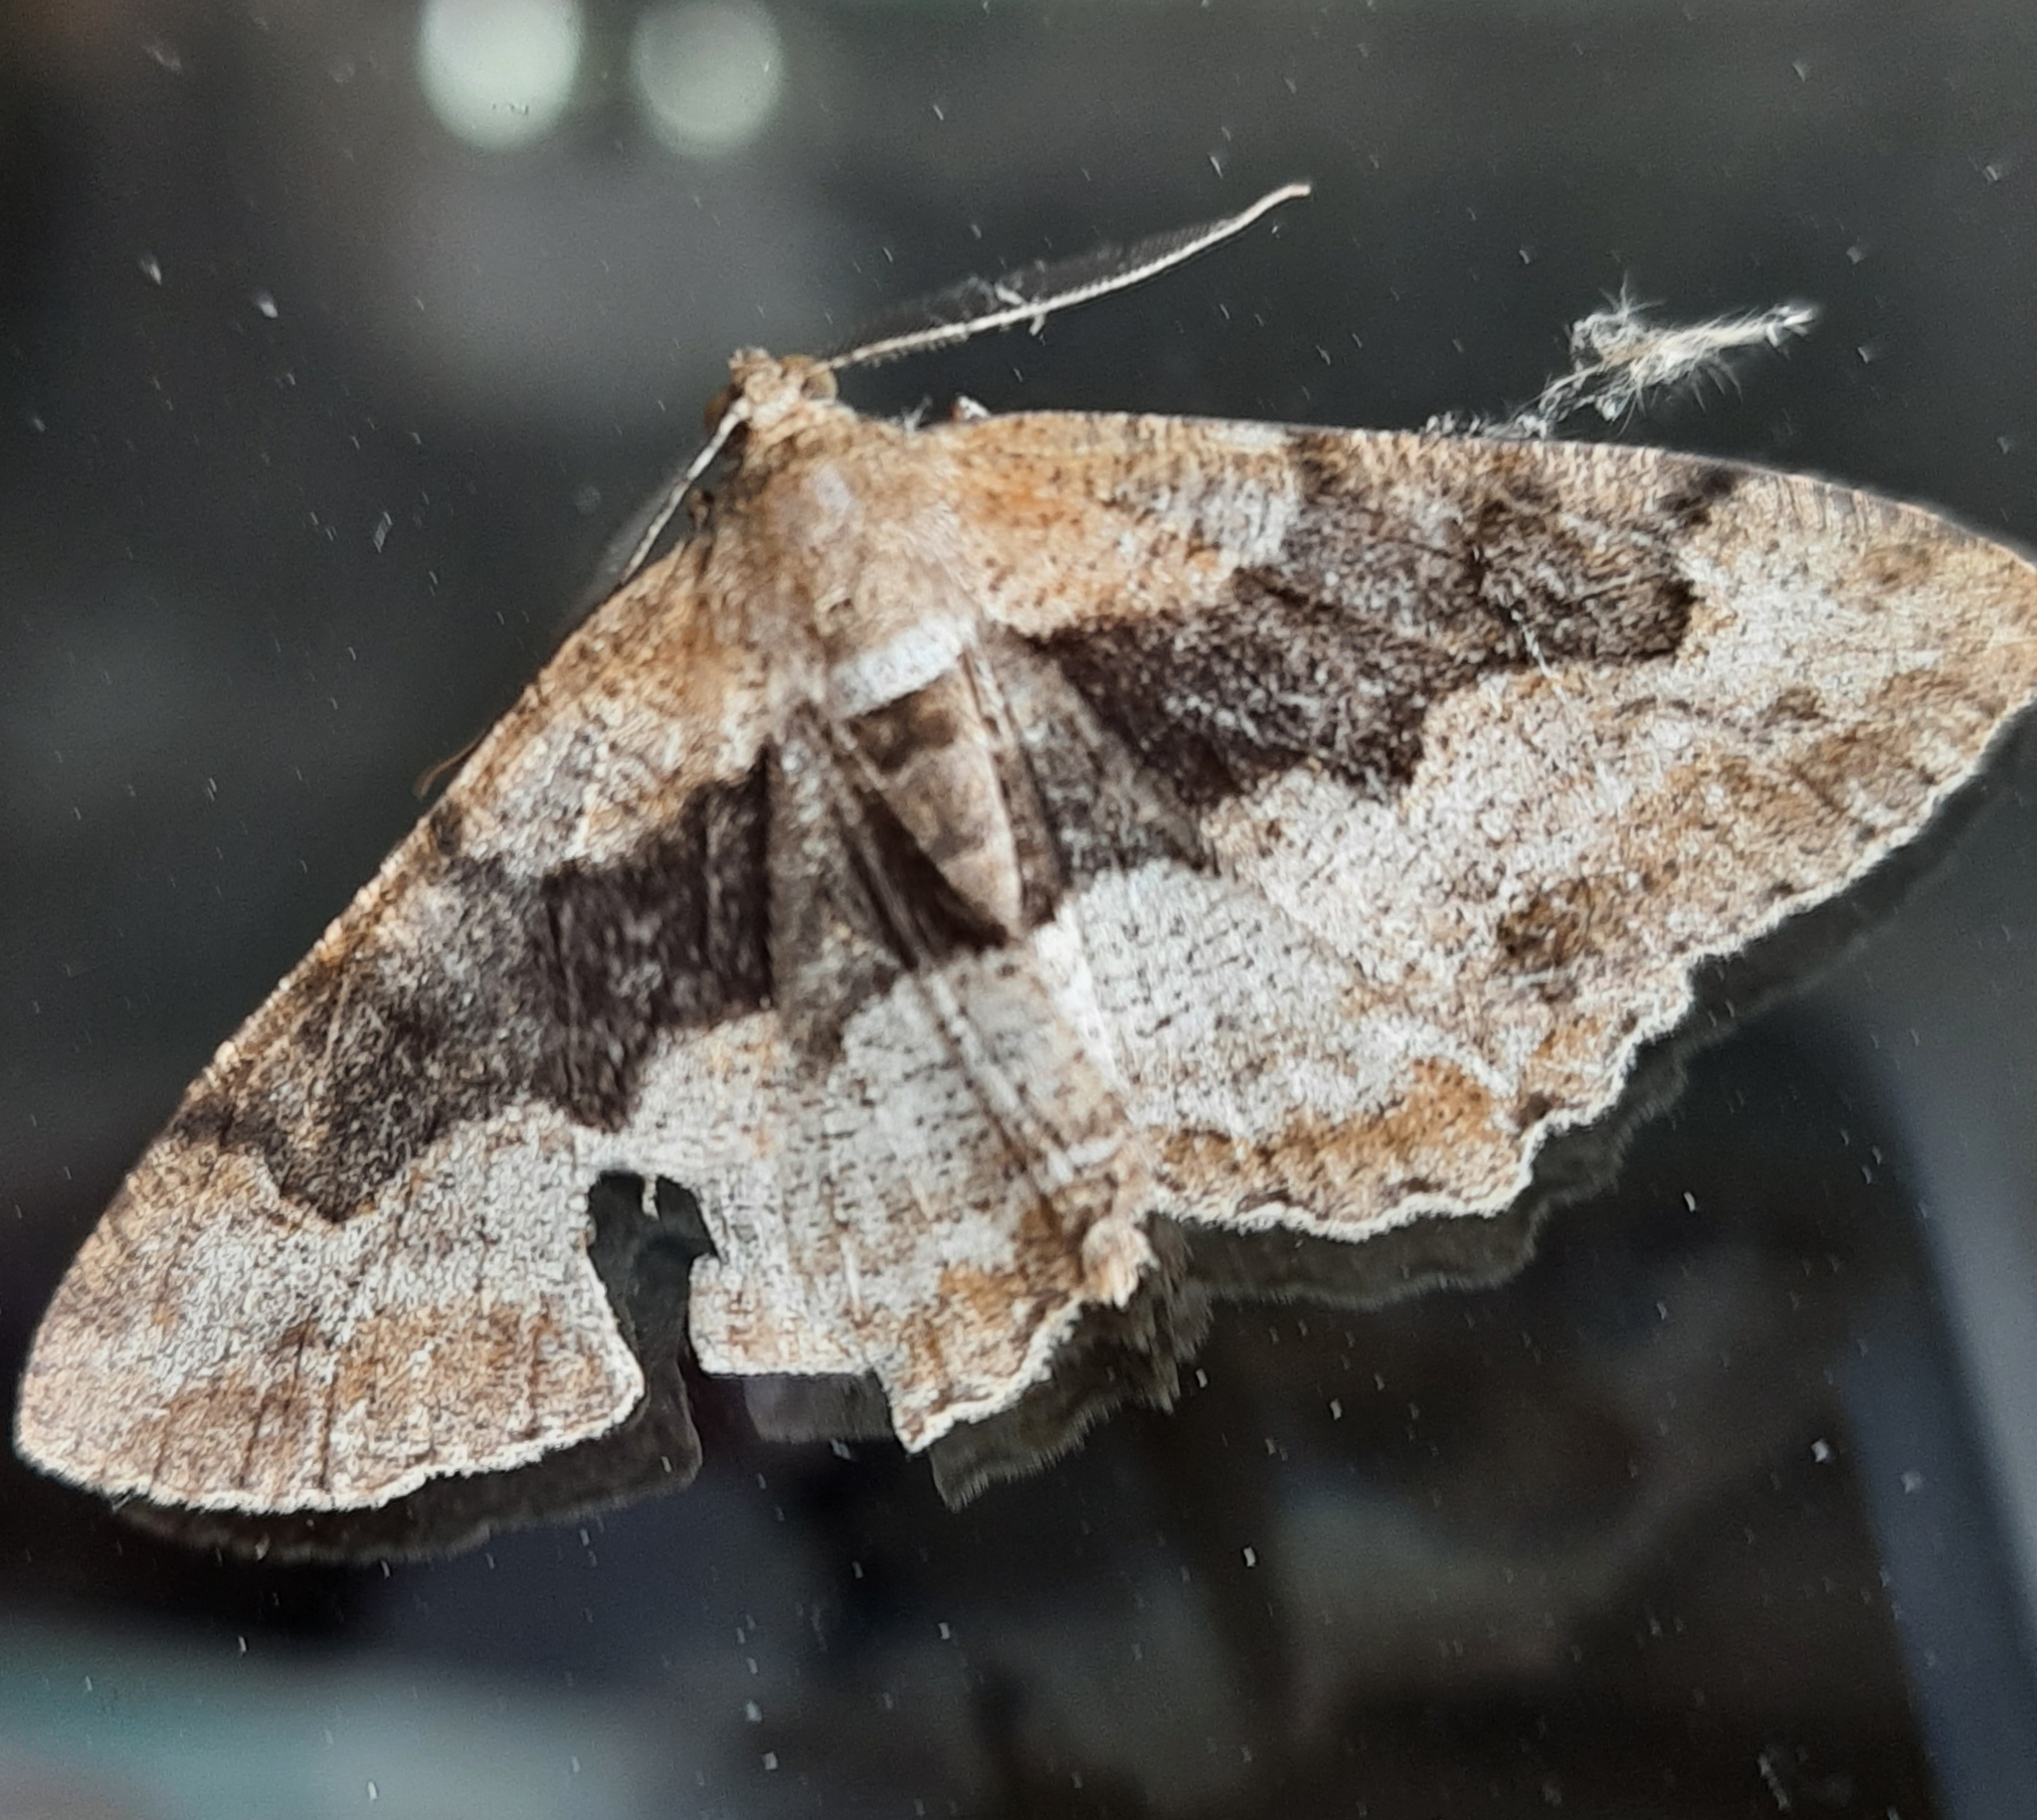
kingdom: Animalia
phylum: Arthropoda
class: Insecta
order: Lepidoptera
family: Geometridae
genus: Alcis
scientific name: Alcis repandata
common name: Mottled beauty
